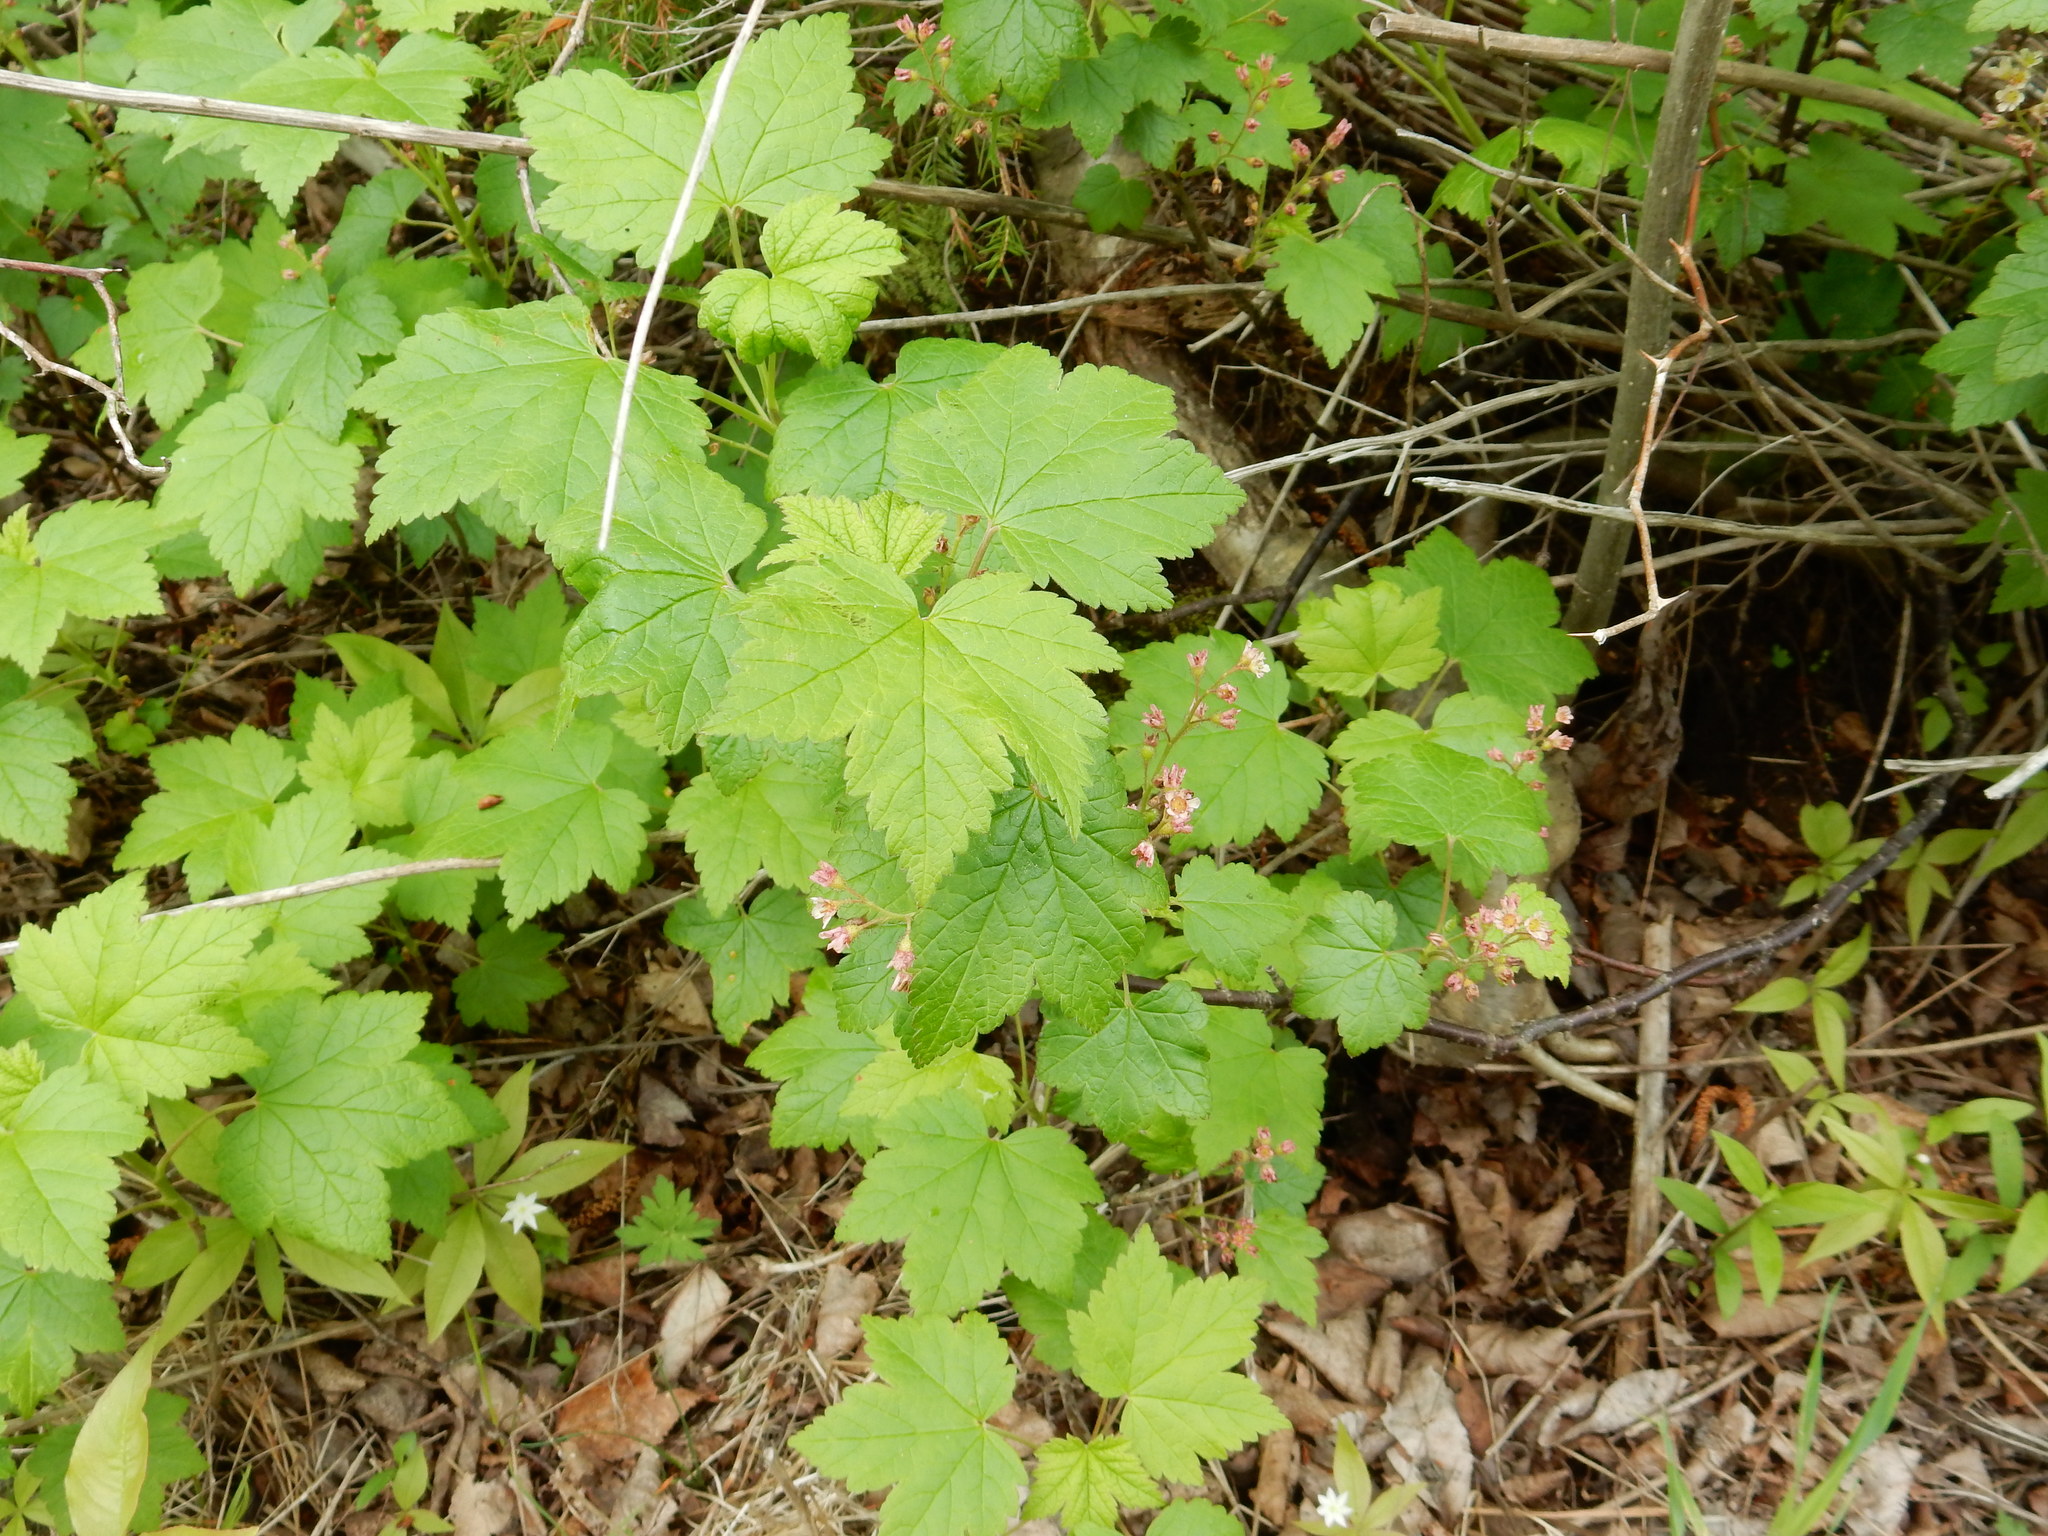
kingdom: Plantae
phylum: Tracheophyta
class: Magnoliopsida
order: Saxifragales
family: Grossulariaceae
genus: Ribes
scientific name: Ribes glandulosum
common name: Skunk currant
